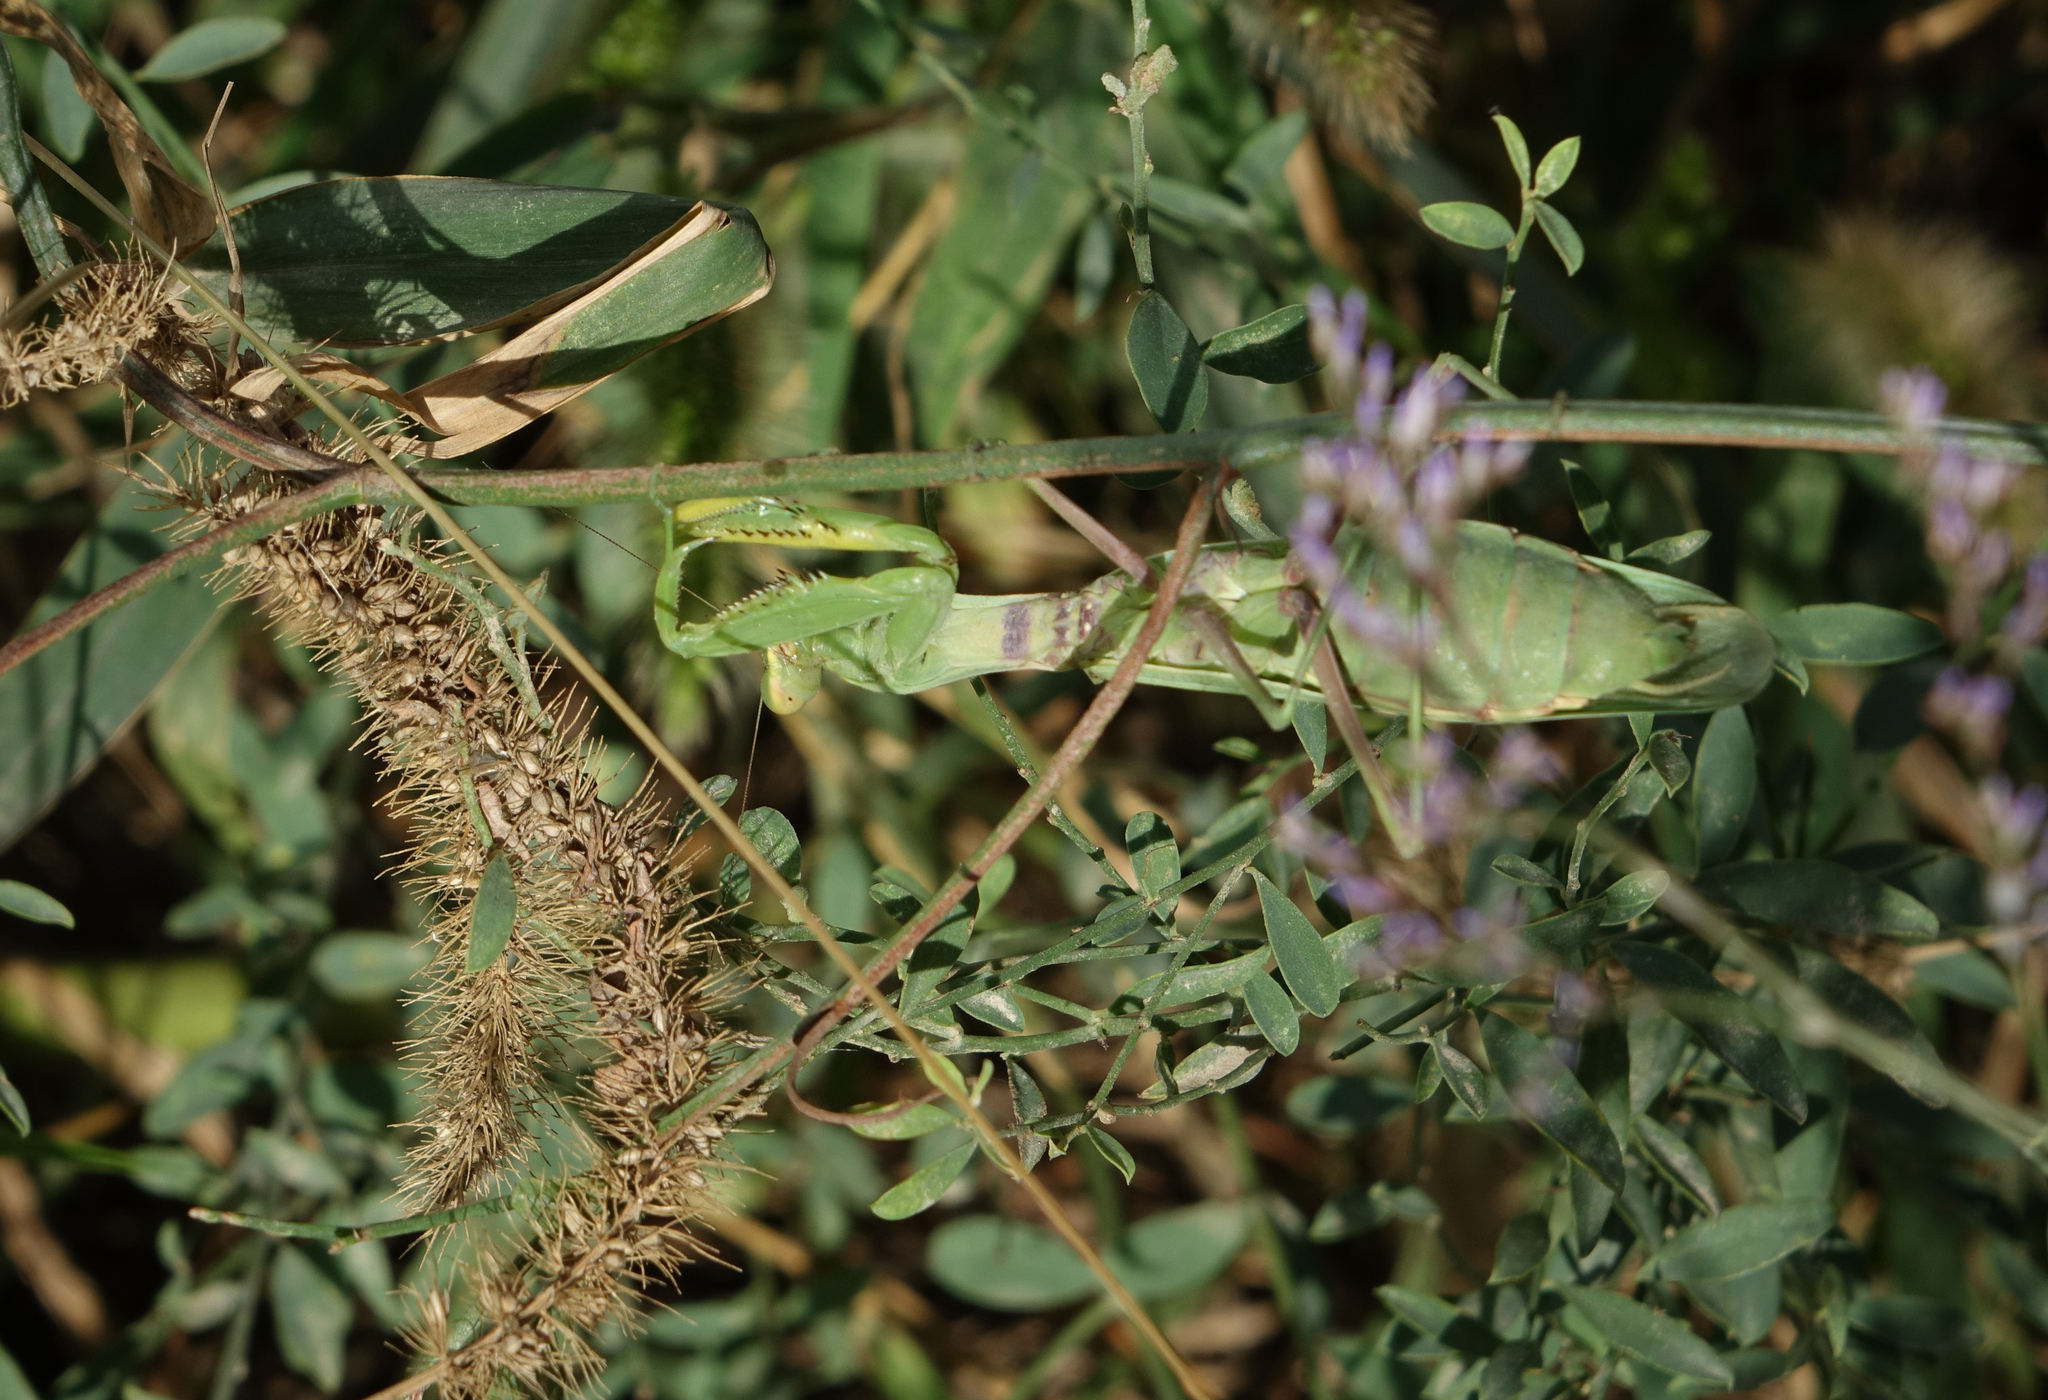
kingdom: Animalia
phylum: Arthropoda
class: Insecta
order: Mantodea
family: Mantidae
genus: Hierodula
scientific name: Hierodula transcaucasica
